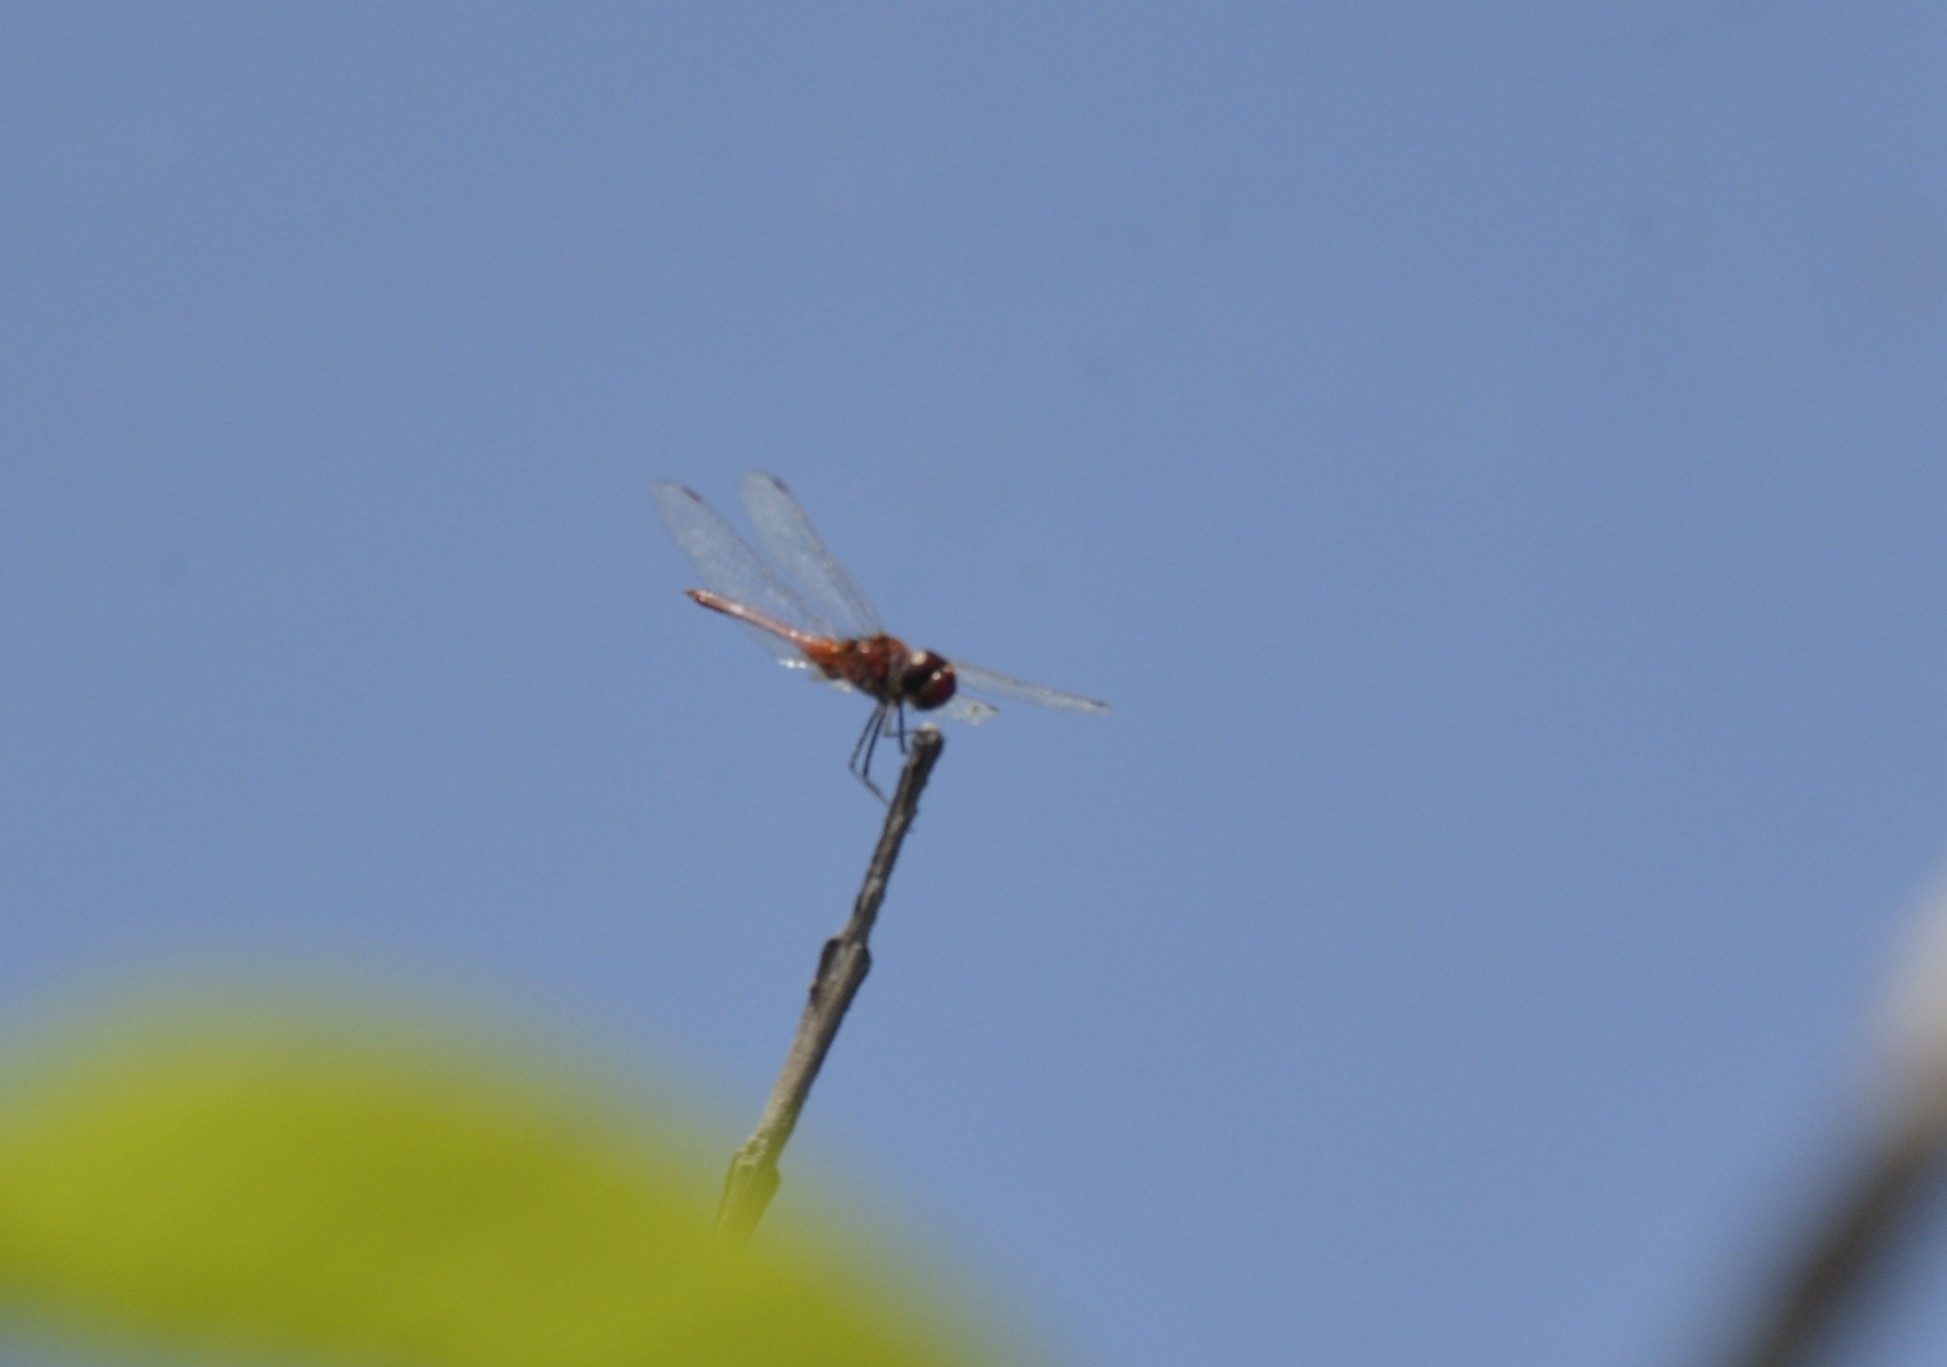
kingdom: Animalia
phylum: Arthropoda
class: Insecta
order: Odonata
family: Libellulidae
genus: Urothemis
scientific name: Urothemis signata
